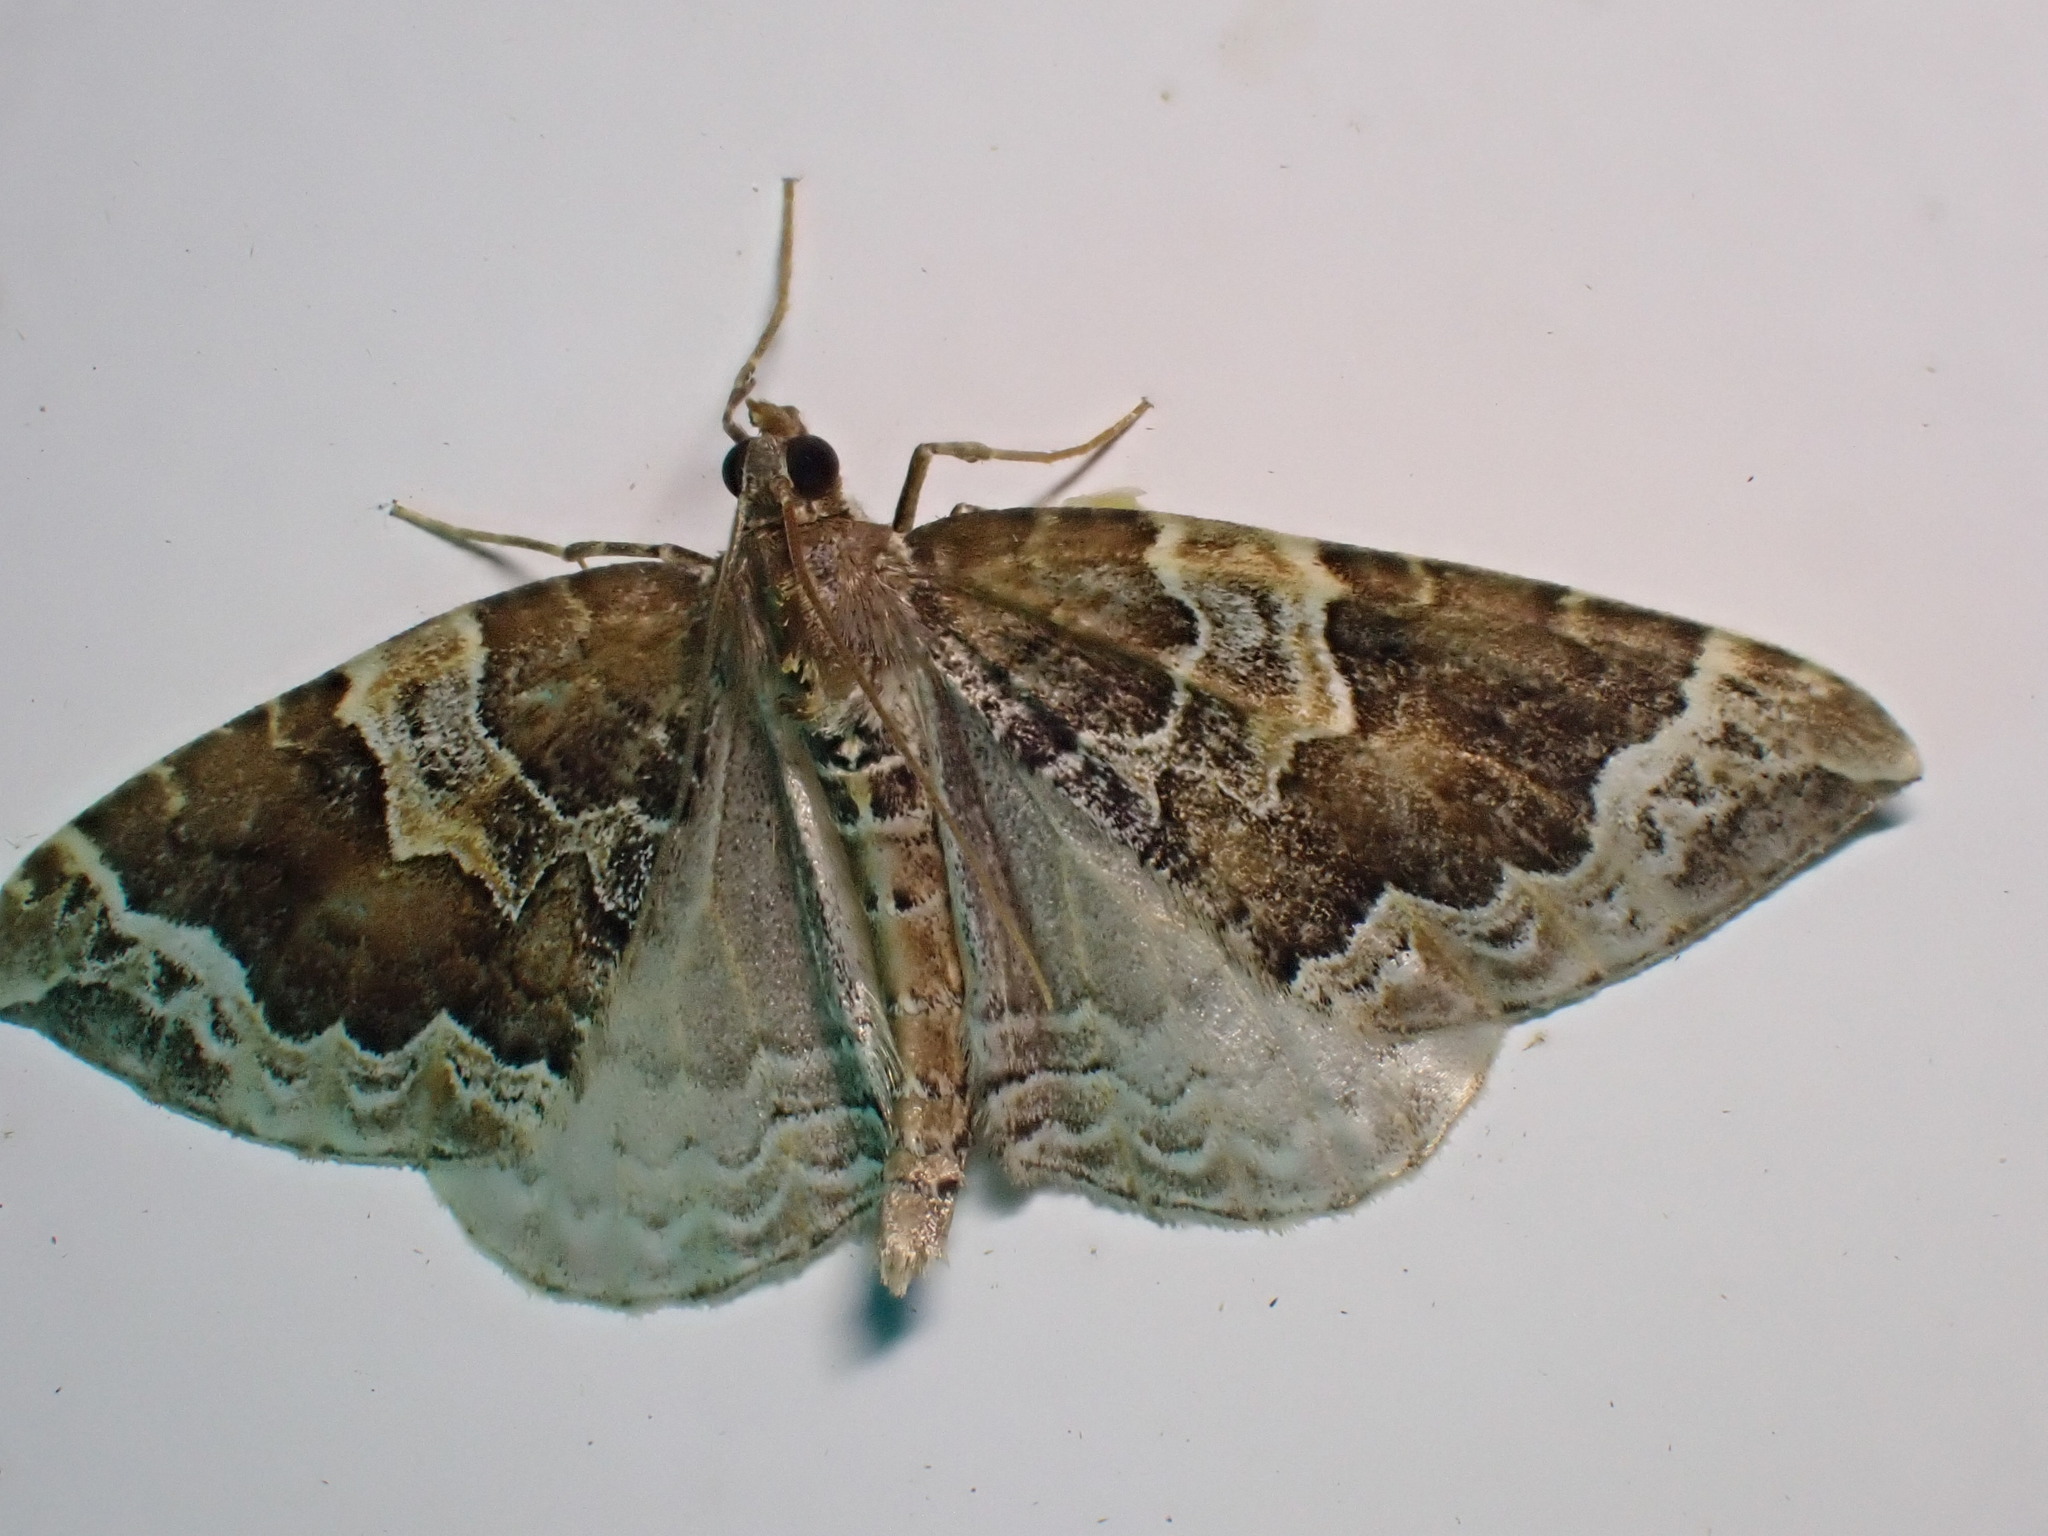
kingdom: Animalia
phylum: Arthropoda
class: Insecta
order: Lepidoptera
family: Geometridae
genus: Eulithis
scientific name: Eulithis prunata
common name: Phoenix
